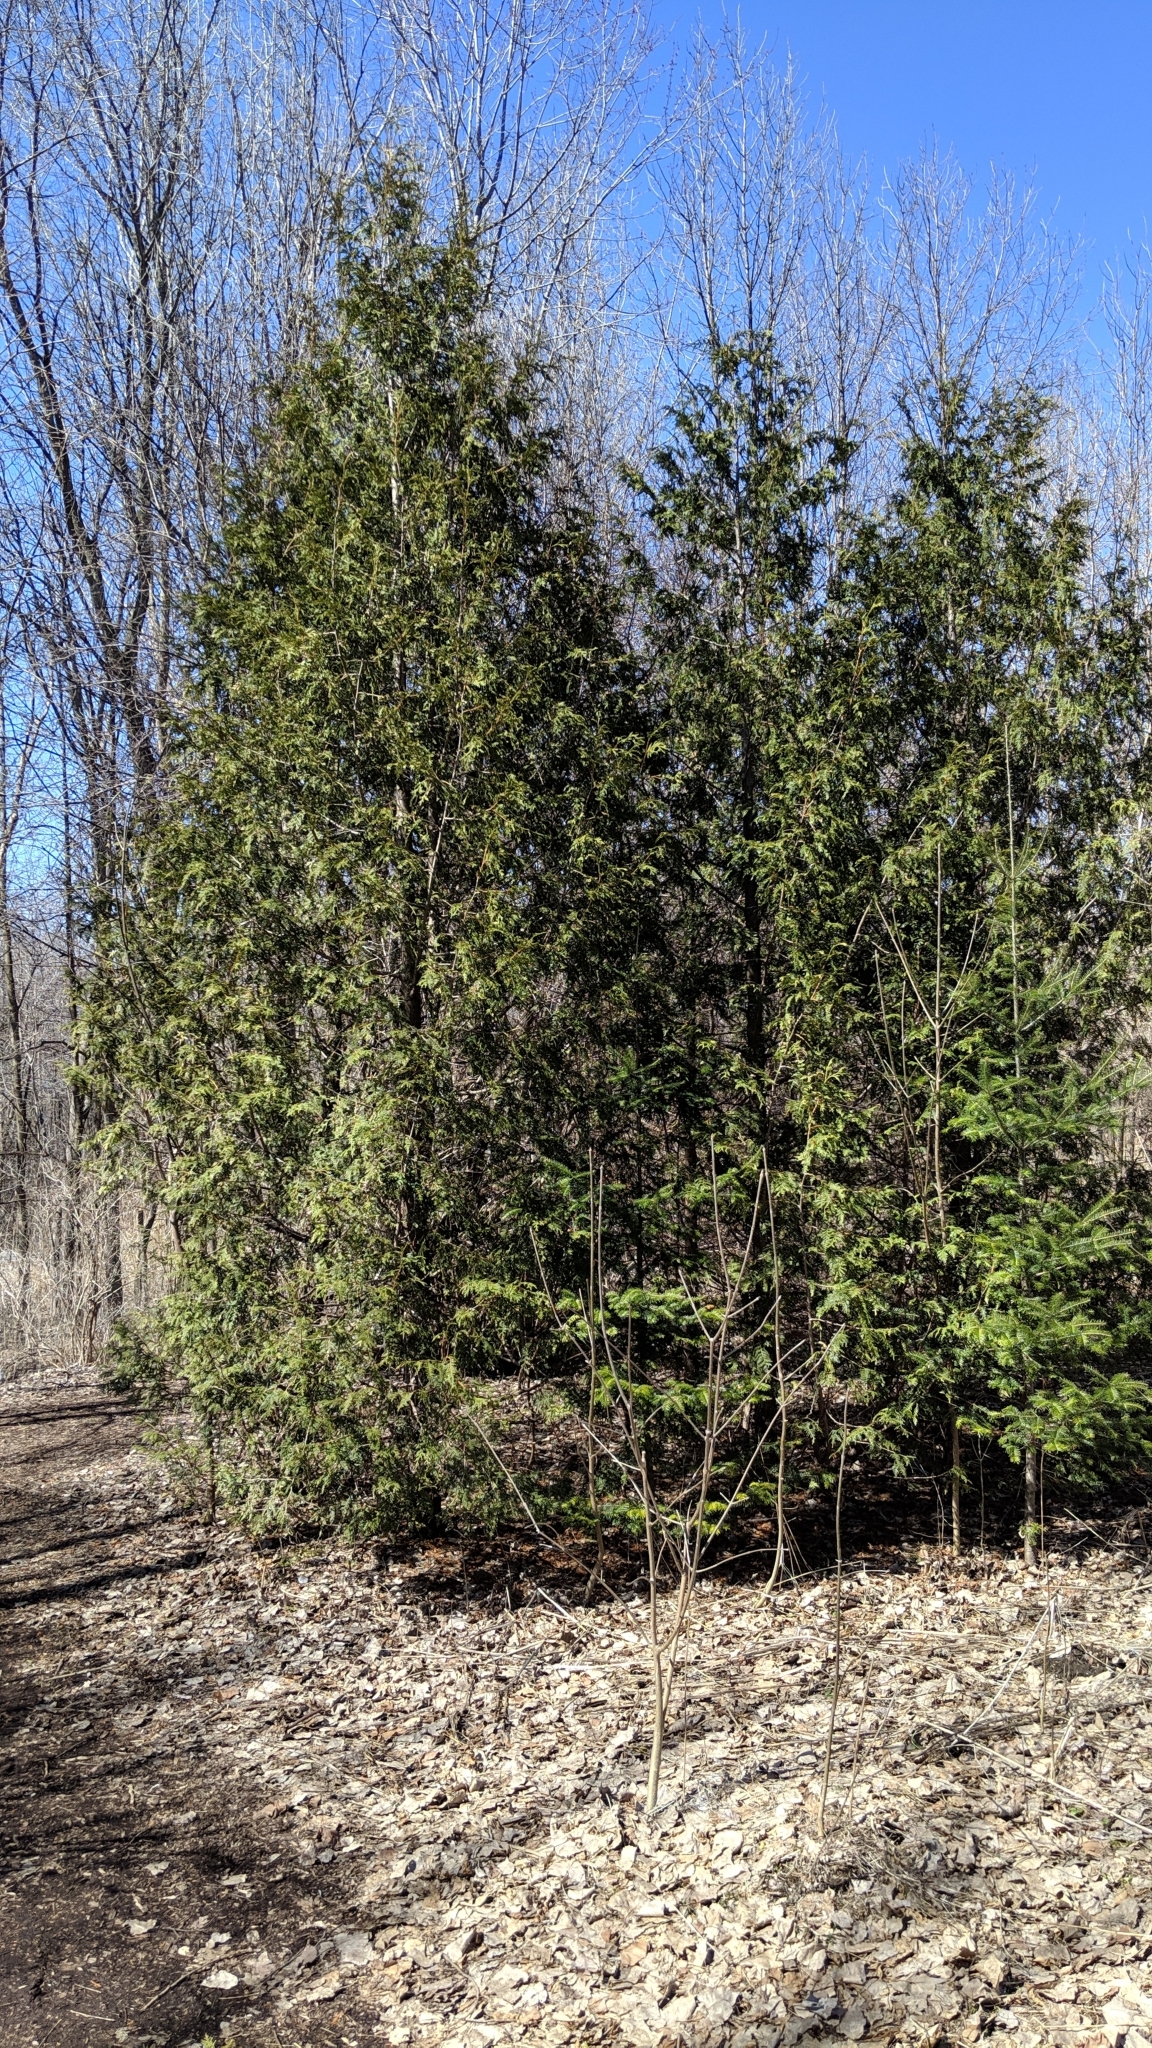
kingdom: Plantae
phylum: Tracheophyta
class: Pinopsida
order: Pinales
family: Cupressaceae
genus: Thuja
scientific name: Thuja occidentalis
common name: Northern white-cedar
